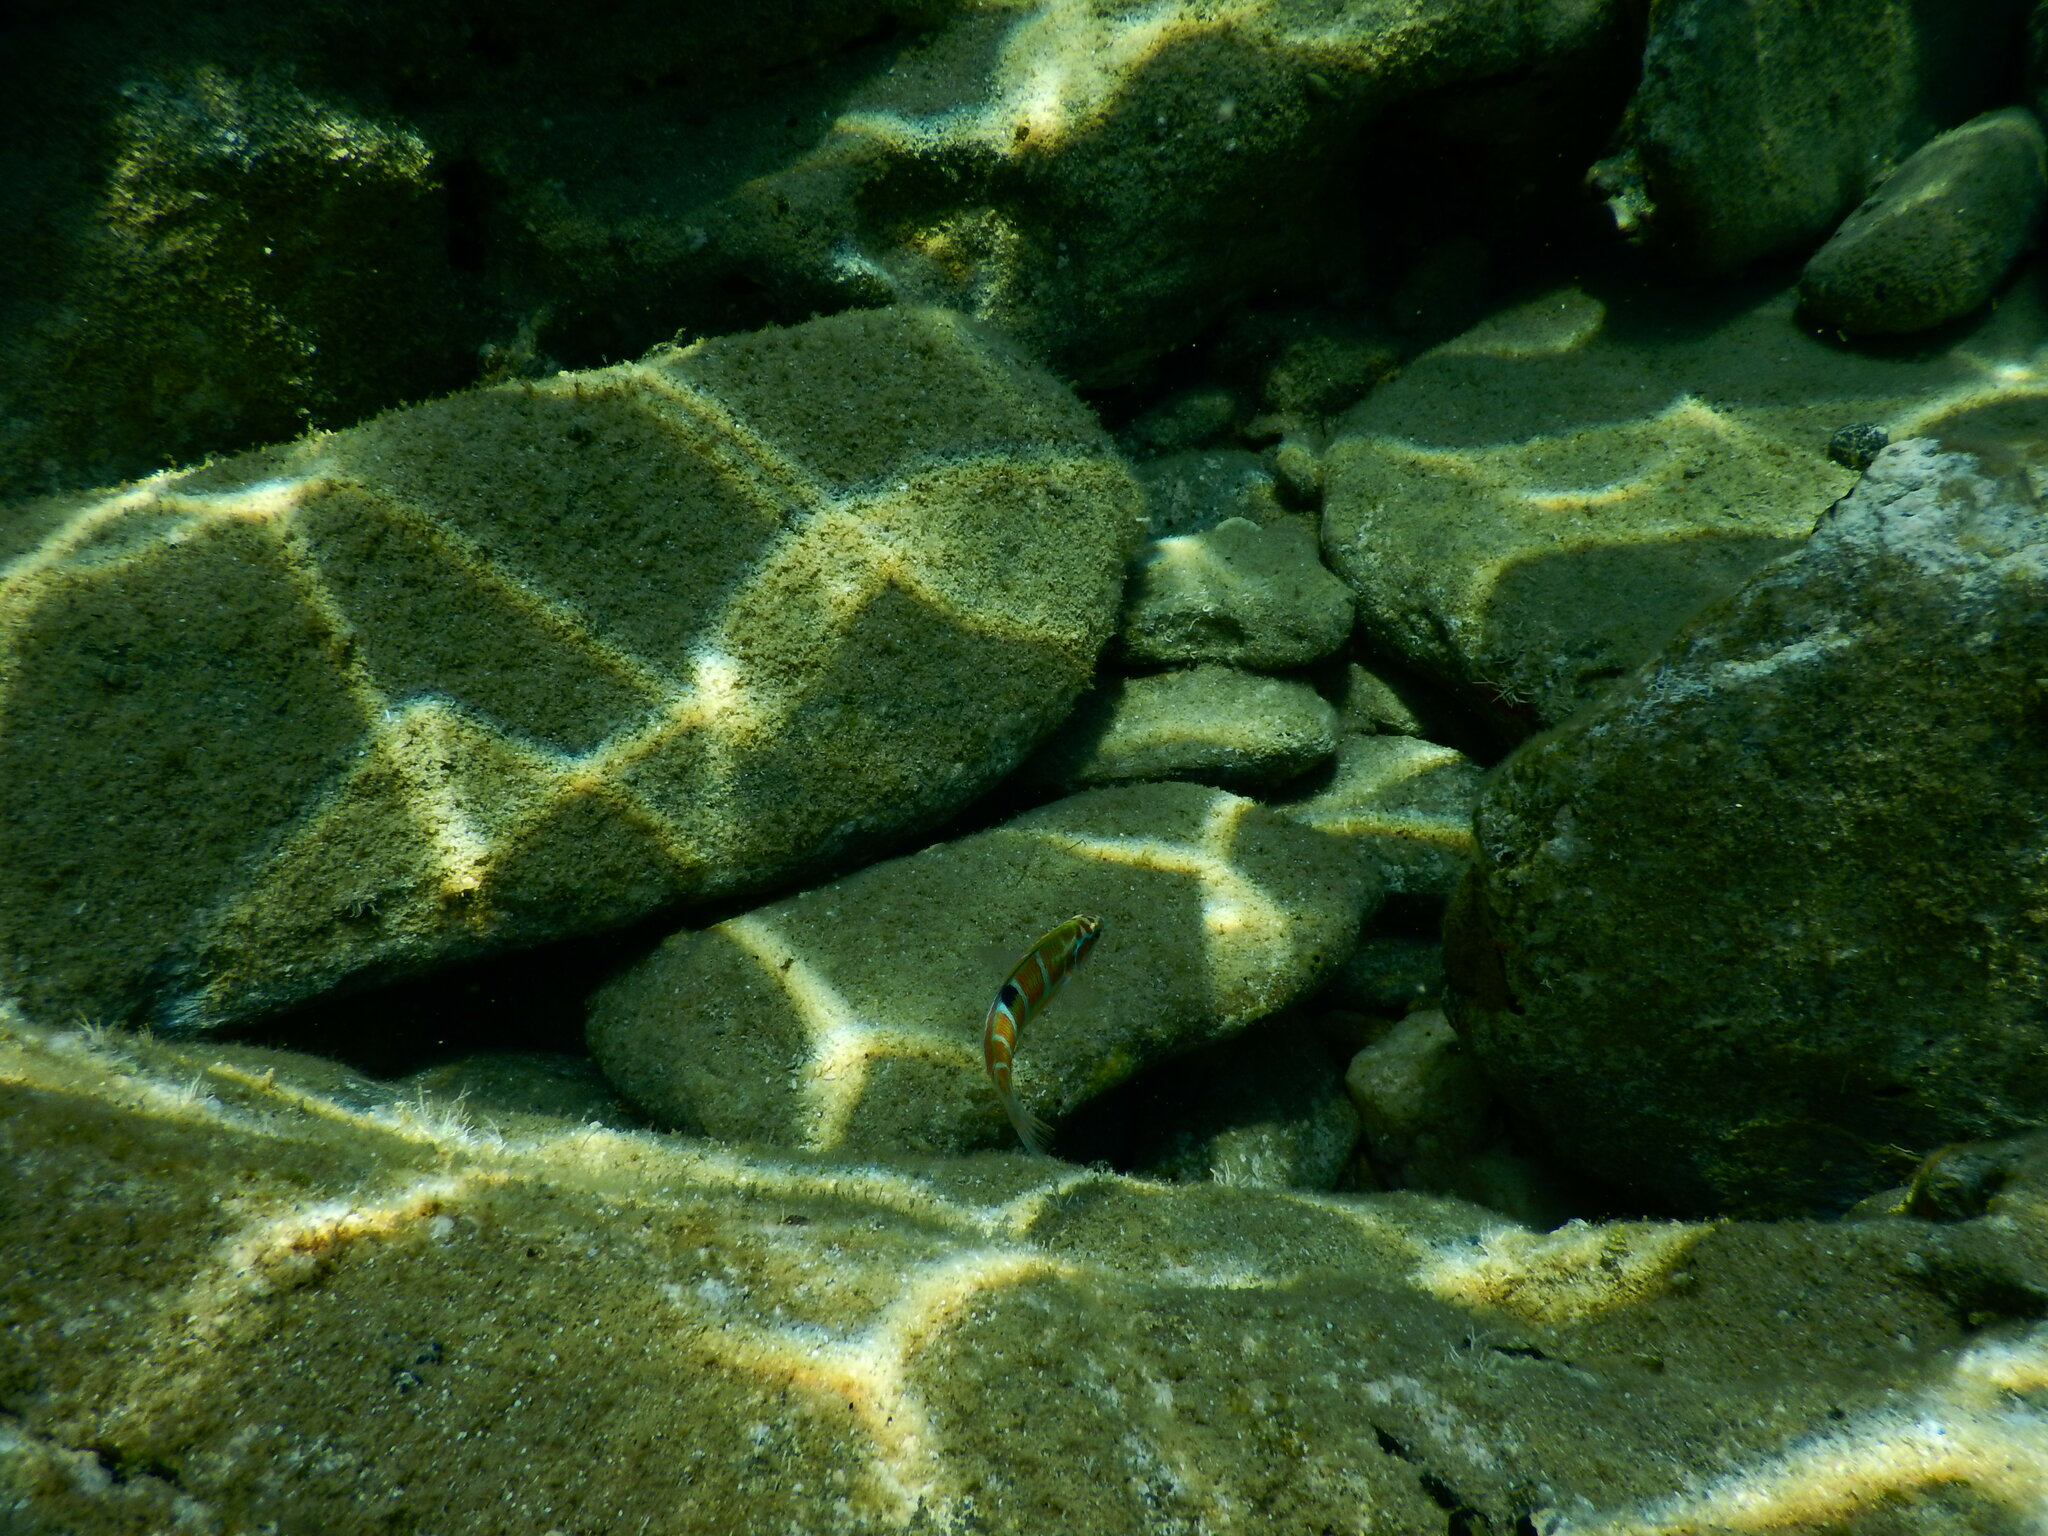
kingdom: Animalia
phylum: Chordata
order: Perciformes
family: Labridae
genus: Thalassoma
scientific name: Thalassoma pavo
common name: Ornate wrasse
